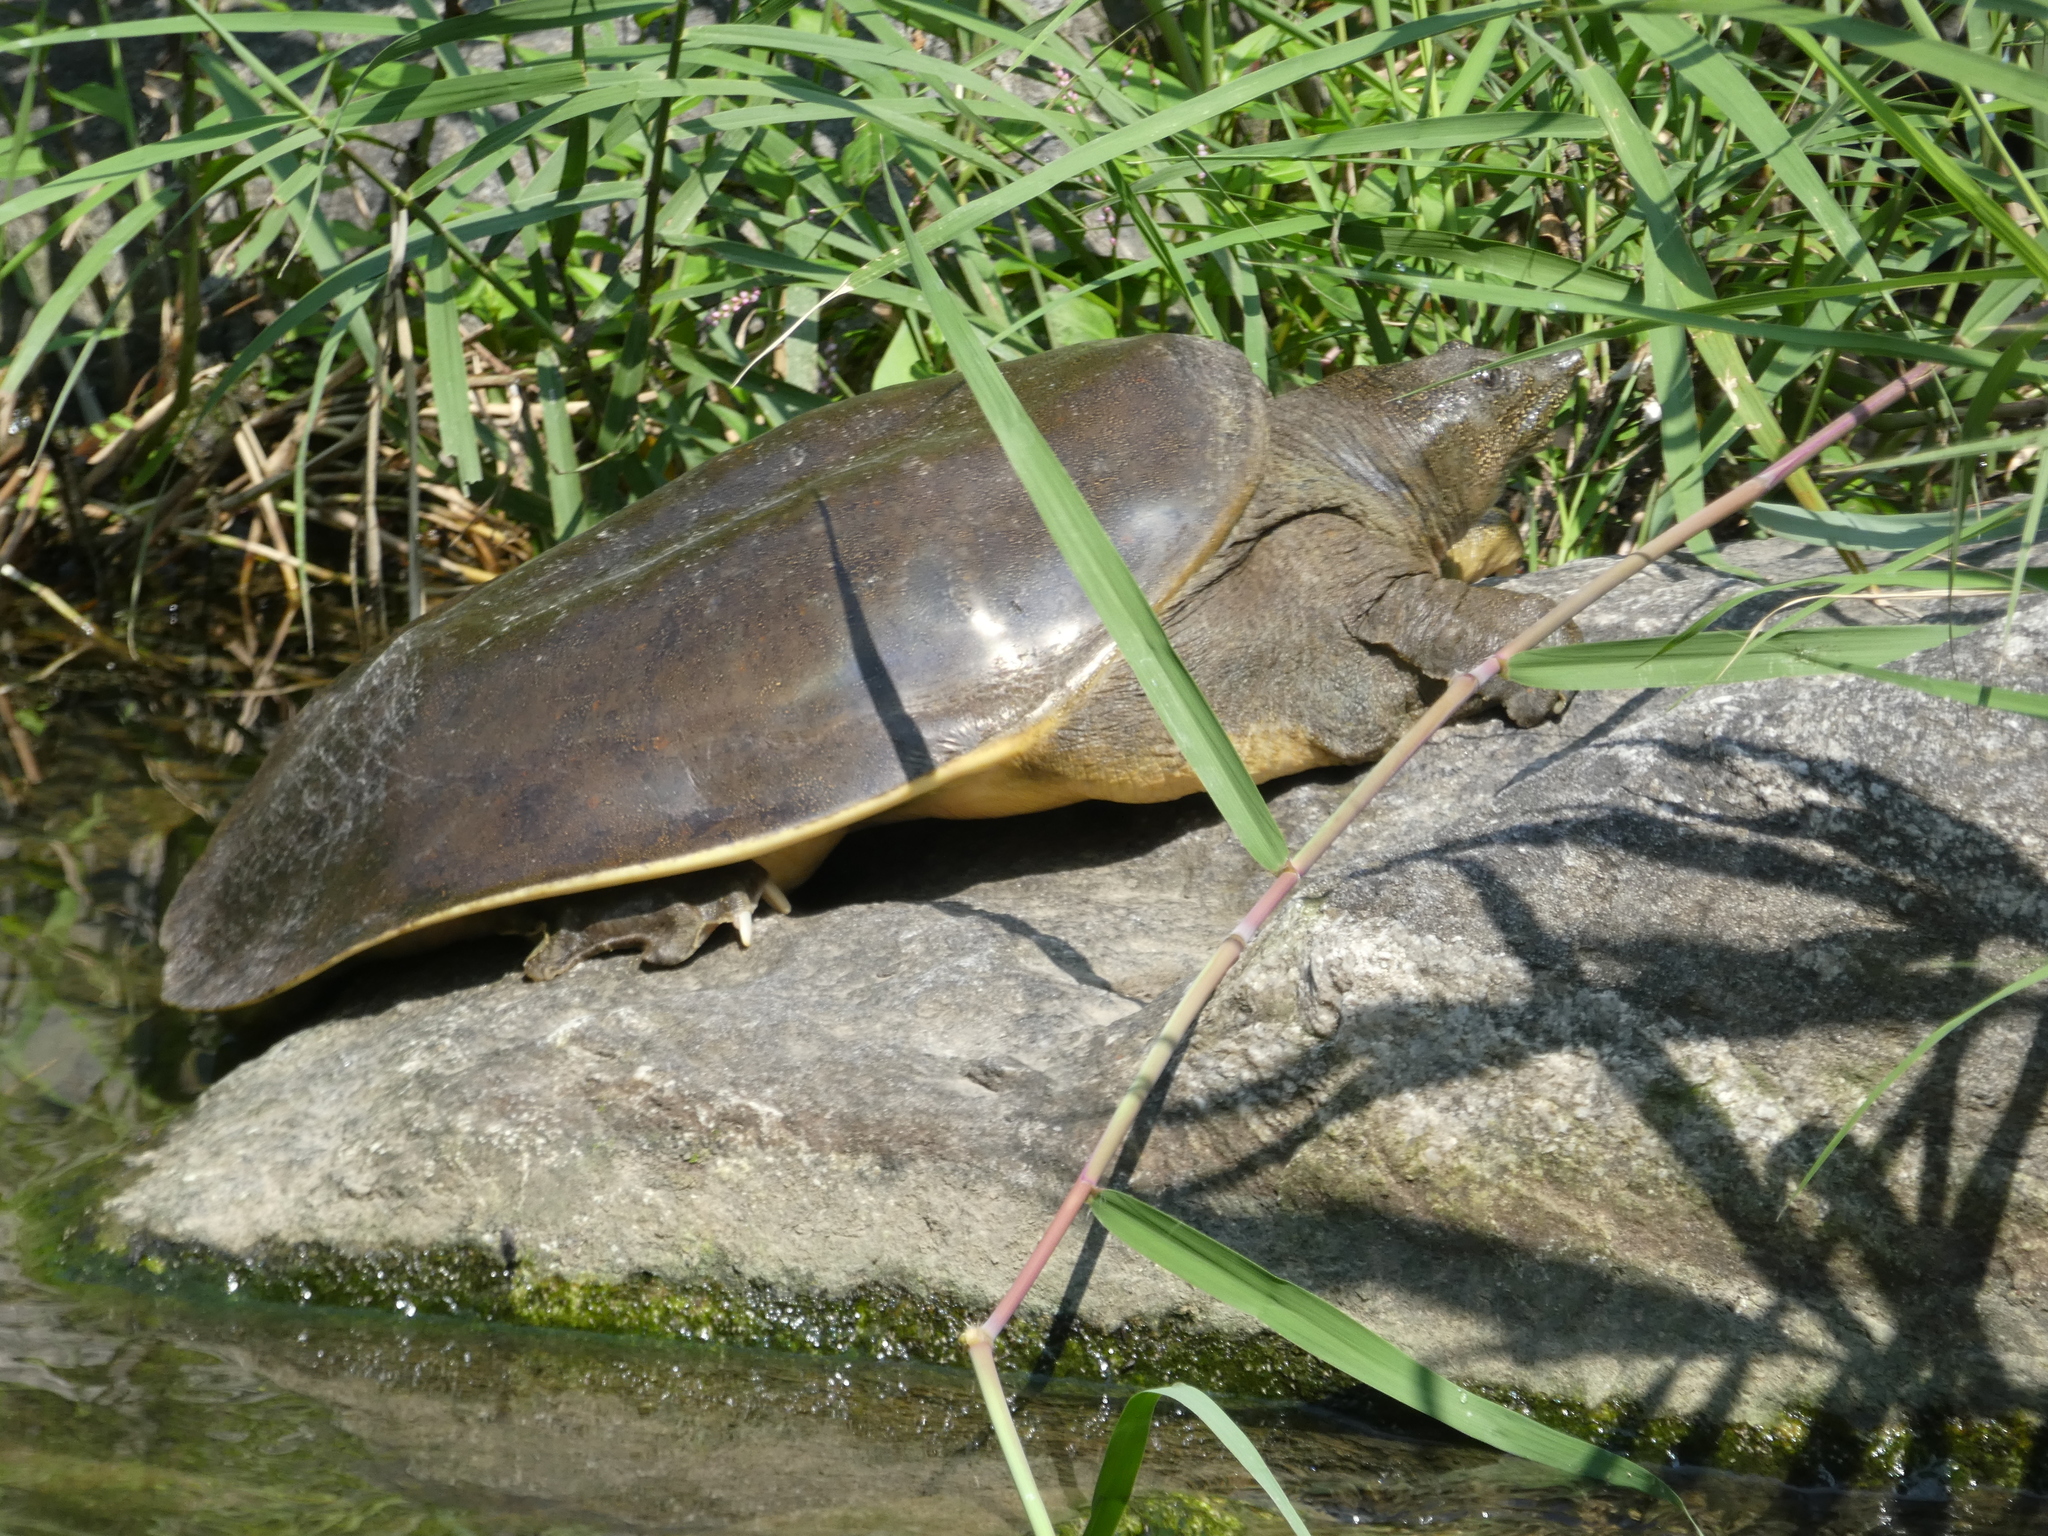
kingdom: Animalia
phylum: Chordata
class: Testudines
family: Trionychidae
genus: Pelodiscus
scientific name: Pelodiscus sinensis
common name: Chinese softshell turtle
